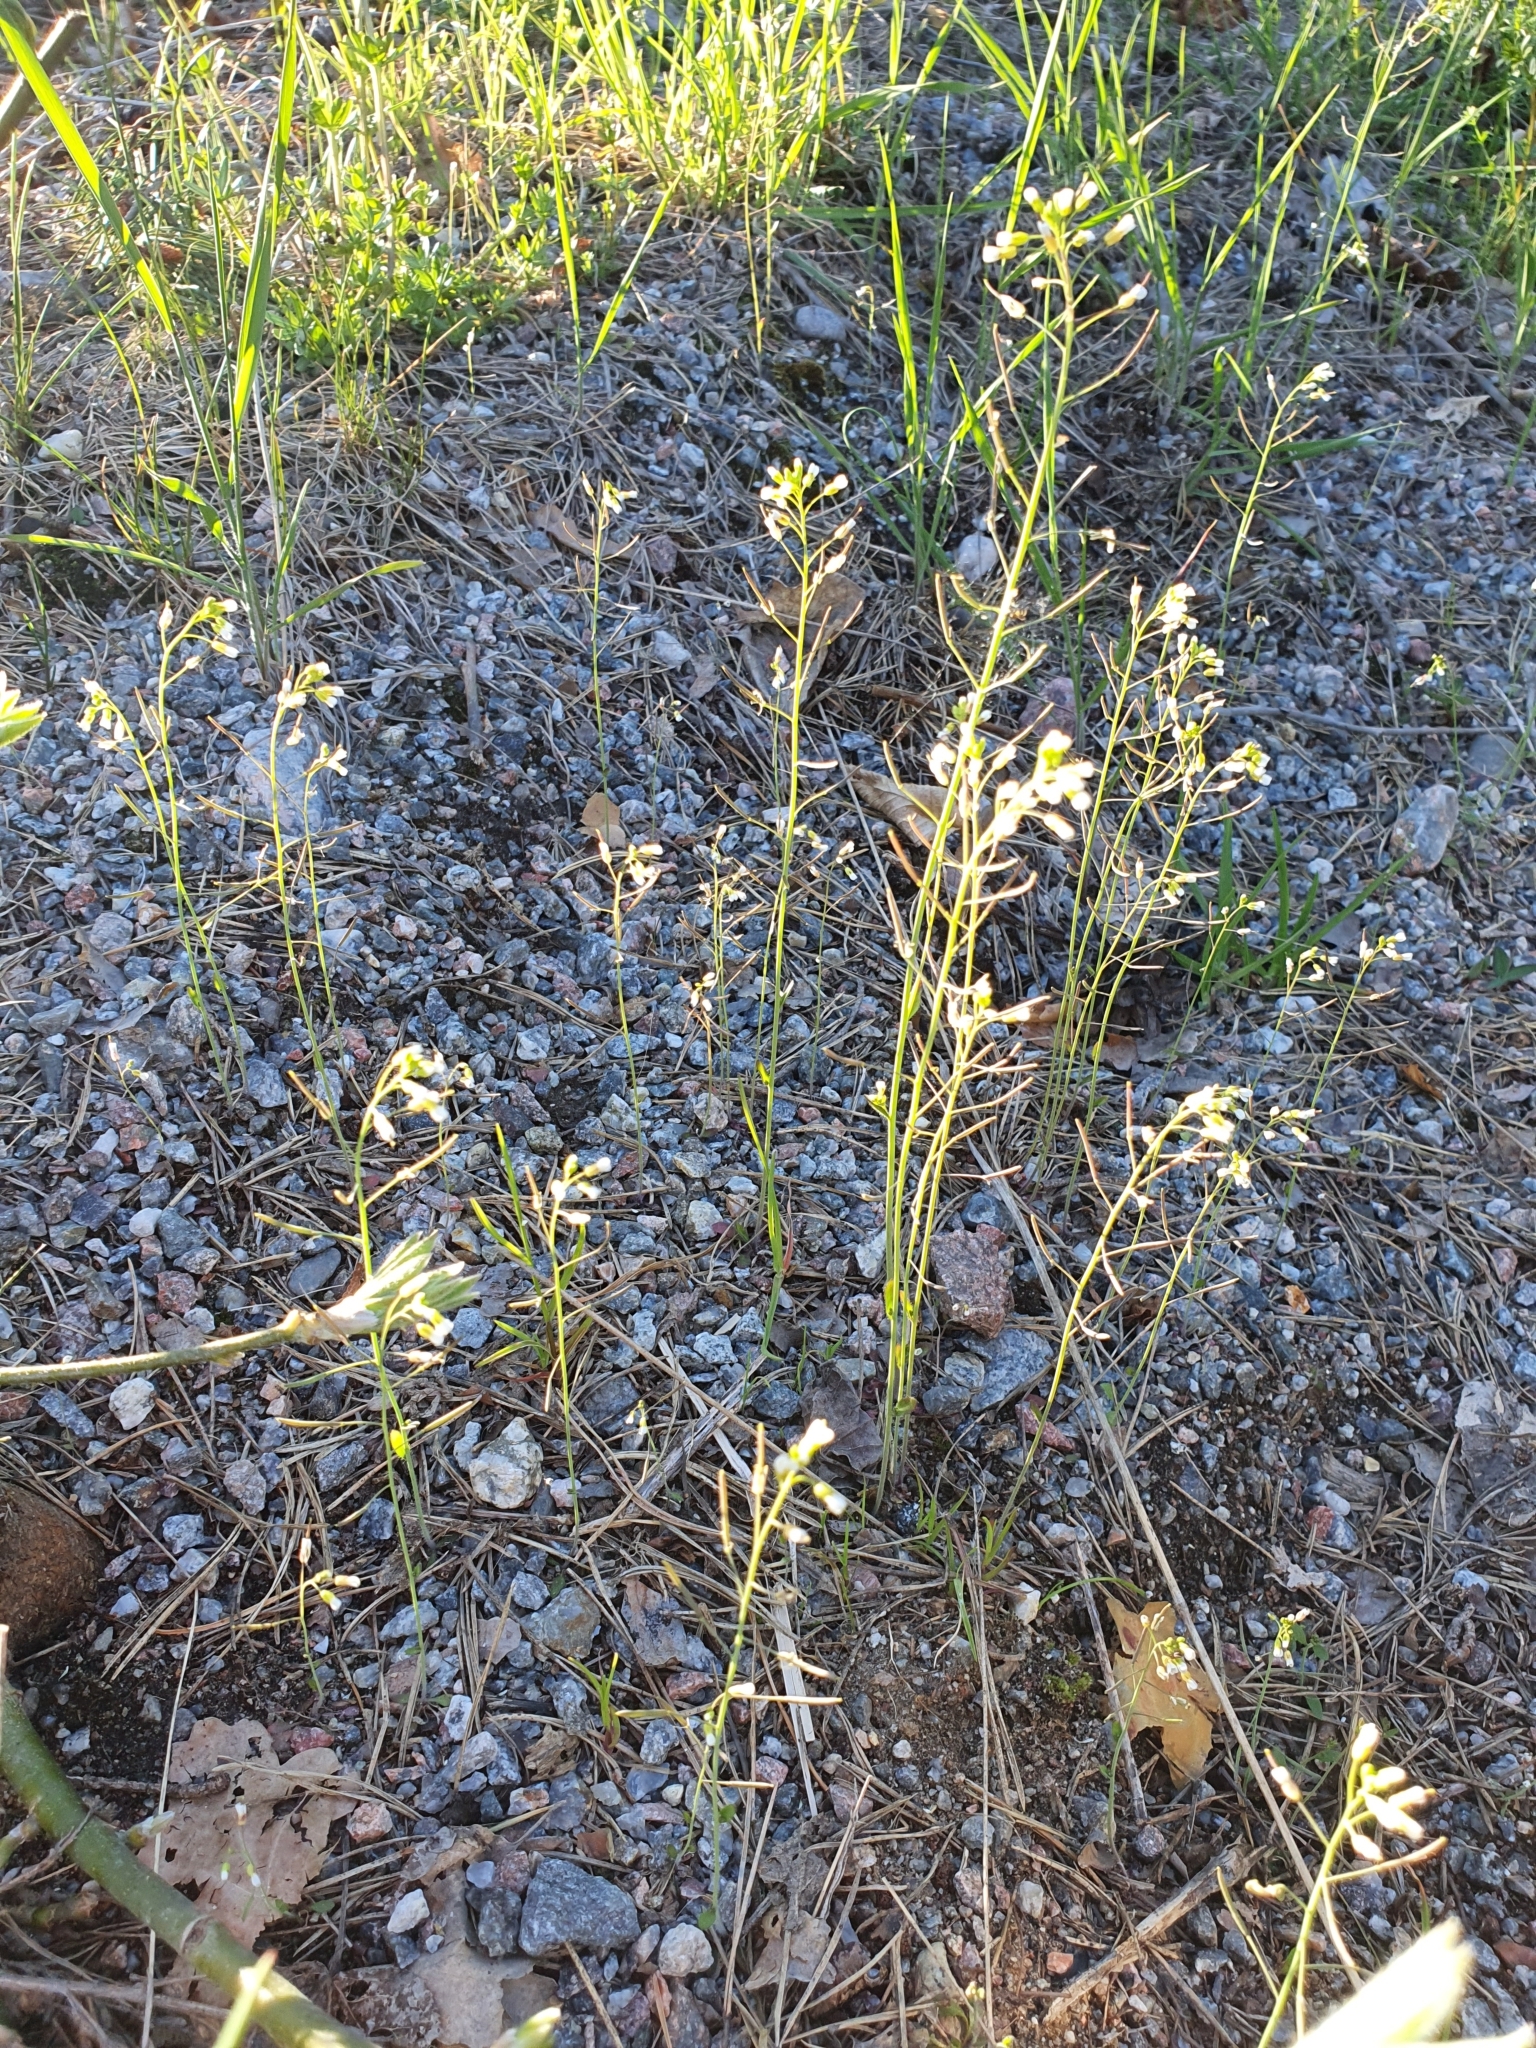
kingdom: Plantae
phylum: Tracheophyta
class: Magnoliopsida
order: Brassicales
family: Brassicaceae
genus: Arabidopsis
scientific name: Arabidopsis thaliana
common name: Thale cress
